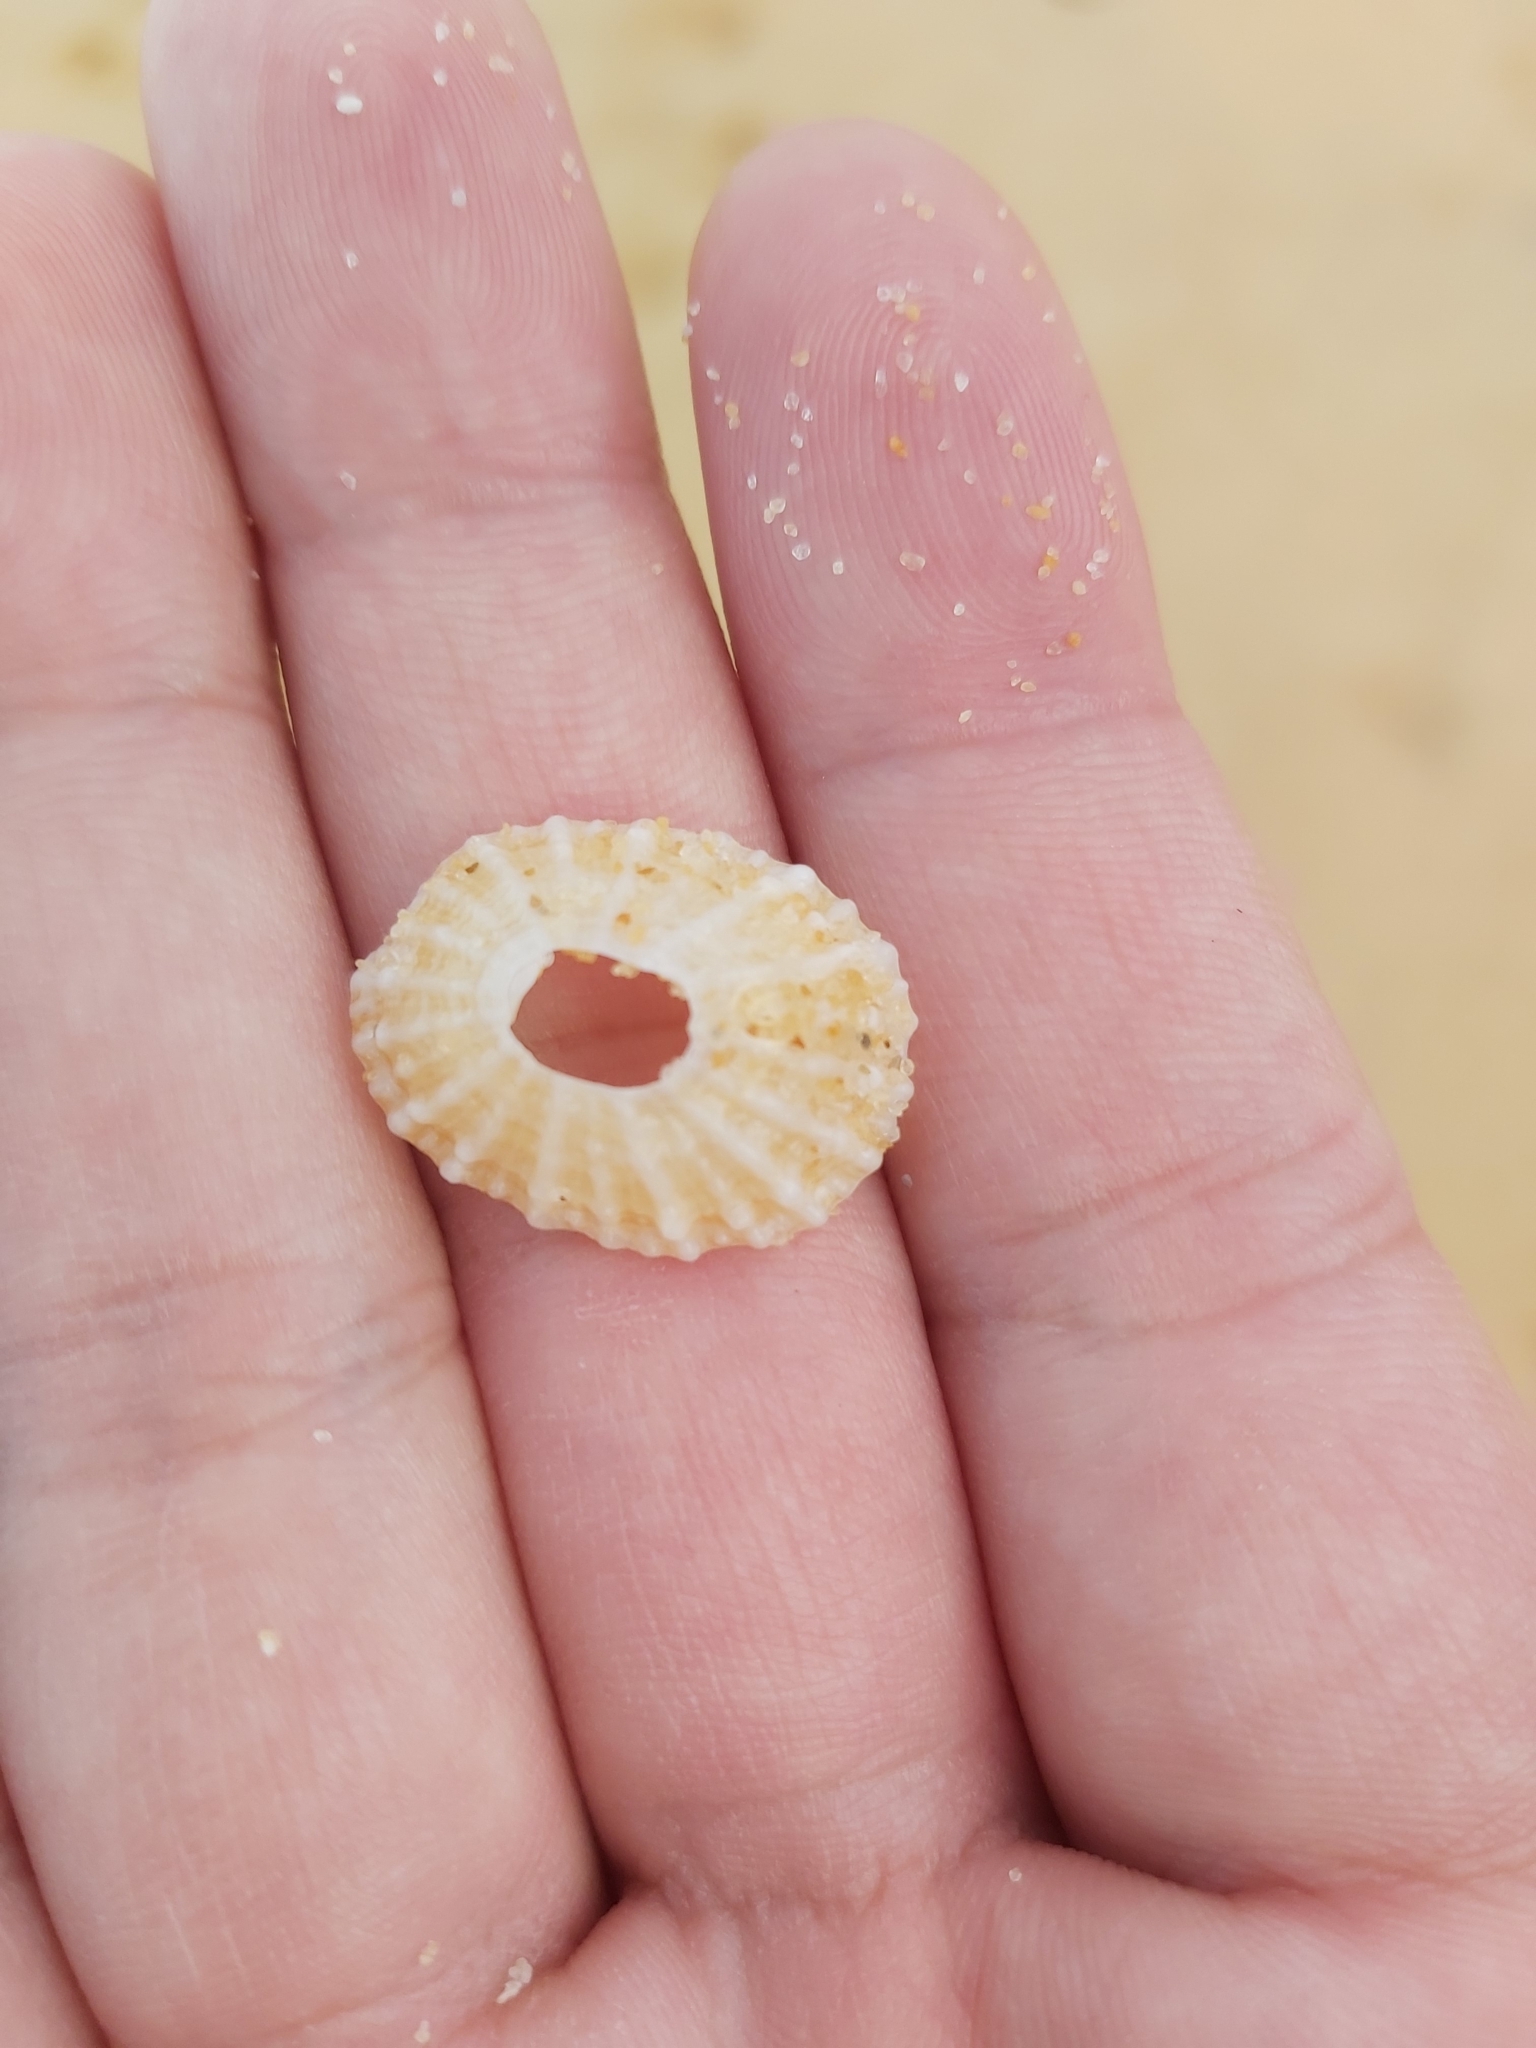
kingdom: Animalia
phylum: Mollusca
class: Gastropoda
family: Patellidae
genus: Scutellastra
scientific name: Scutellastra peronii
